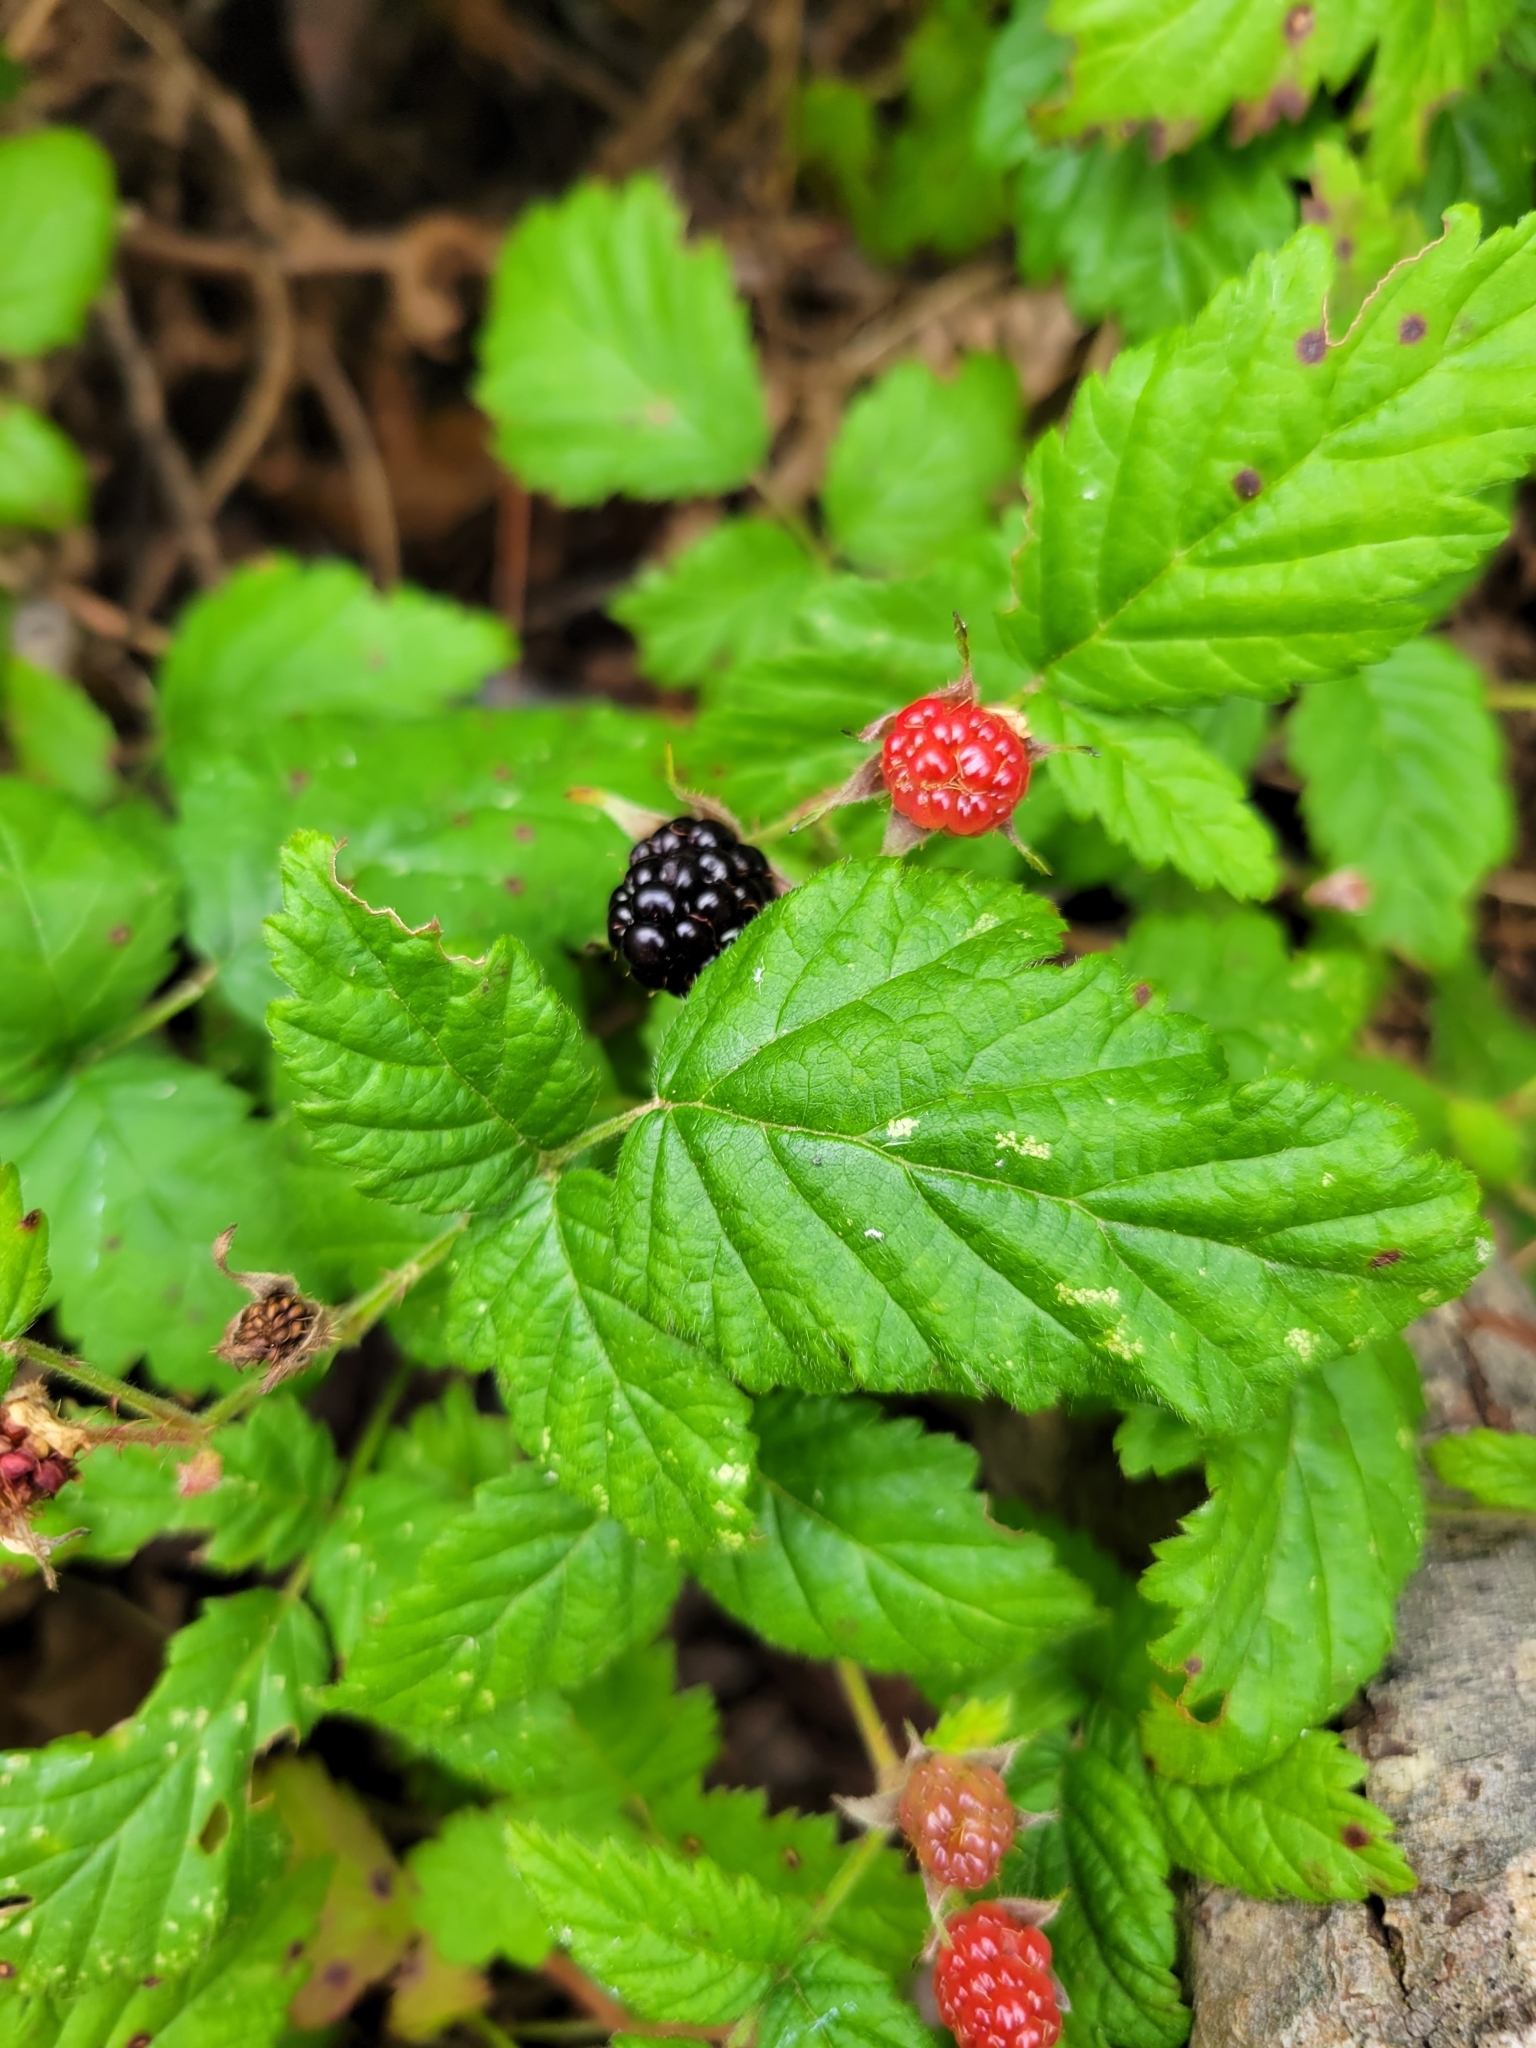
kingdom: Plantae
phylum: Tracheophyta
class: Magnoliopsida
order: Rosales
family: Rosaceae
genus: Rubus
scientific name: Rubus ursinus
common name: Pacific blackberry
